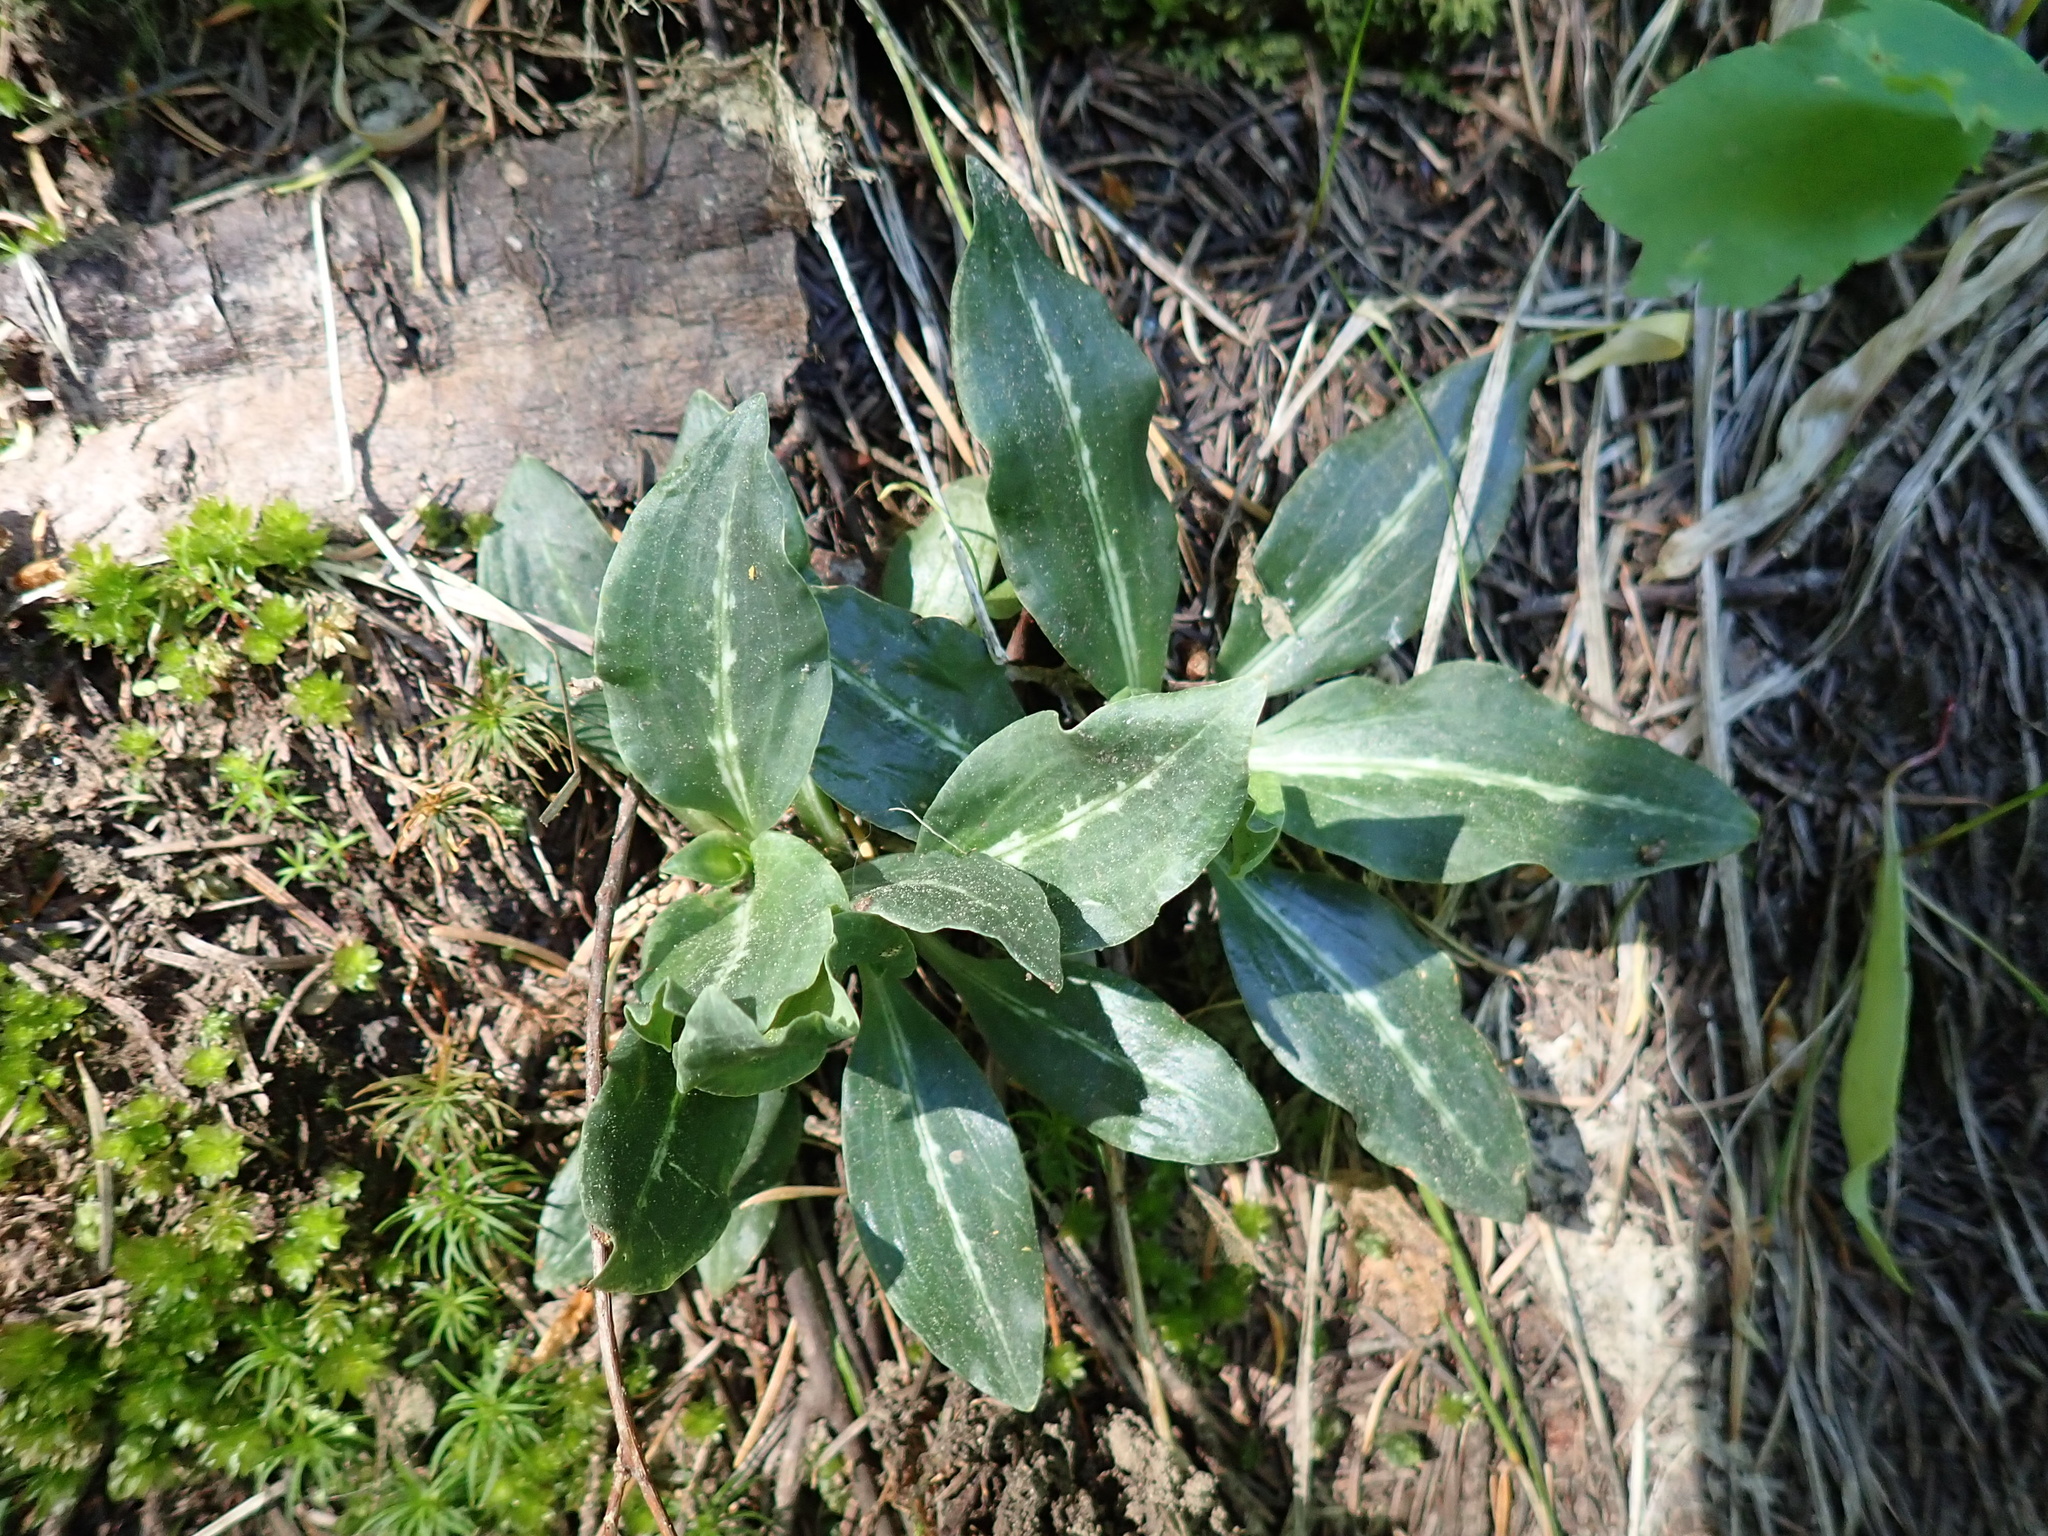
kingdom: Plantae
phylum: Tracheophyta
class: Liliopsida
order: Asparagales
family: Orchidaceae
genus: Goodyera
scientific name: Goodyera oblongifolia
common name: Giant rattlesnake-plantain
